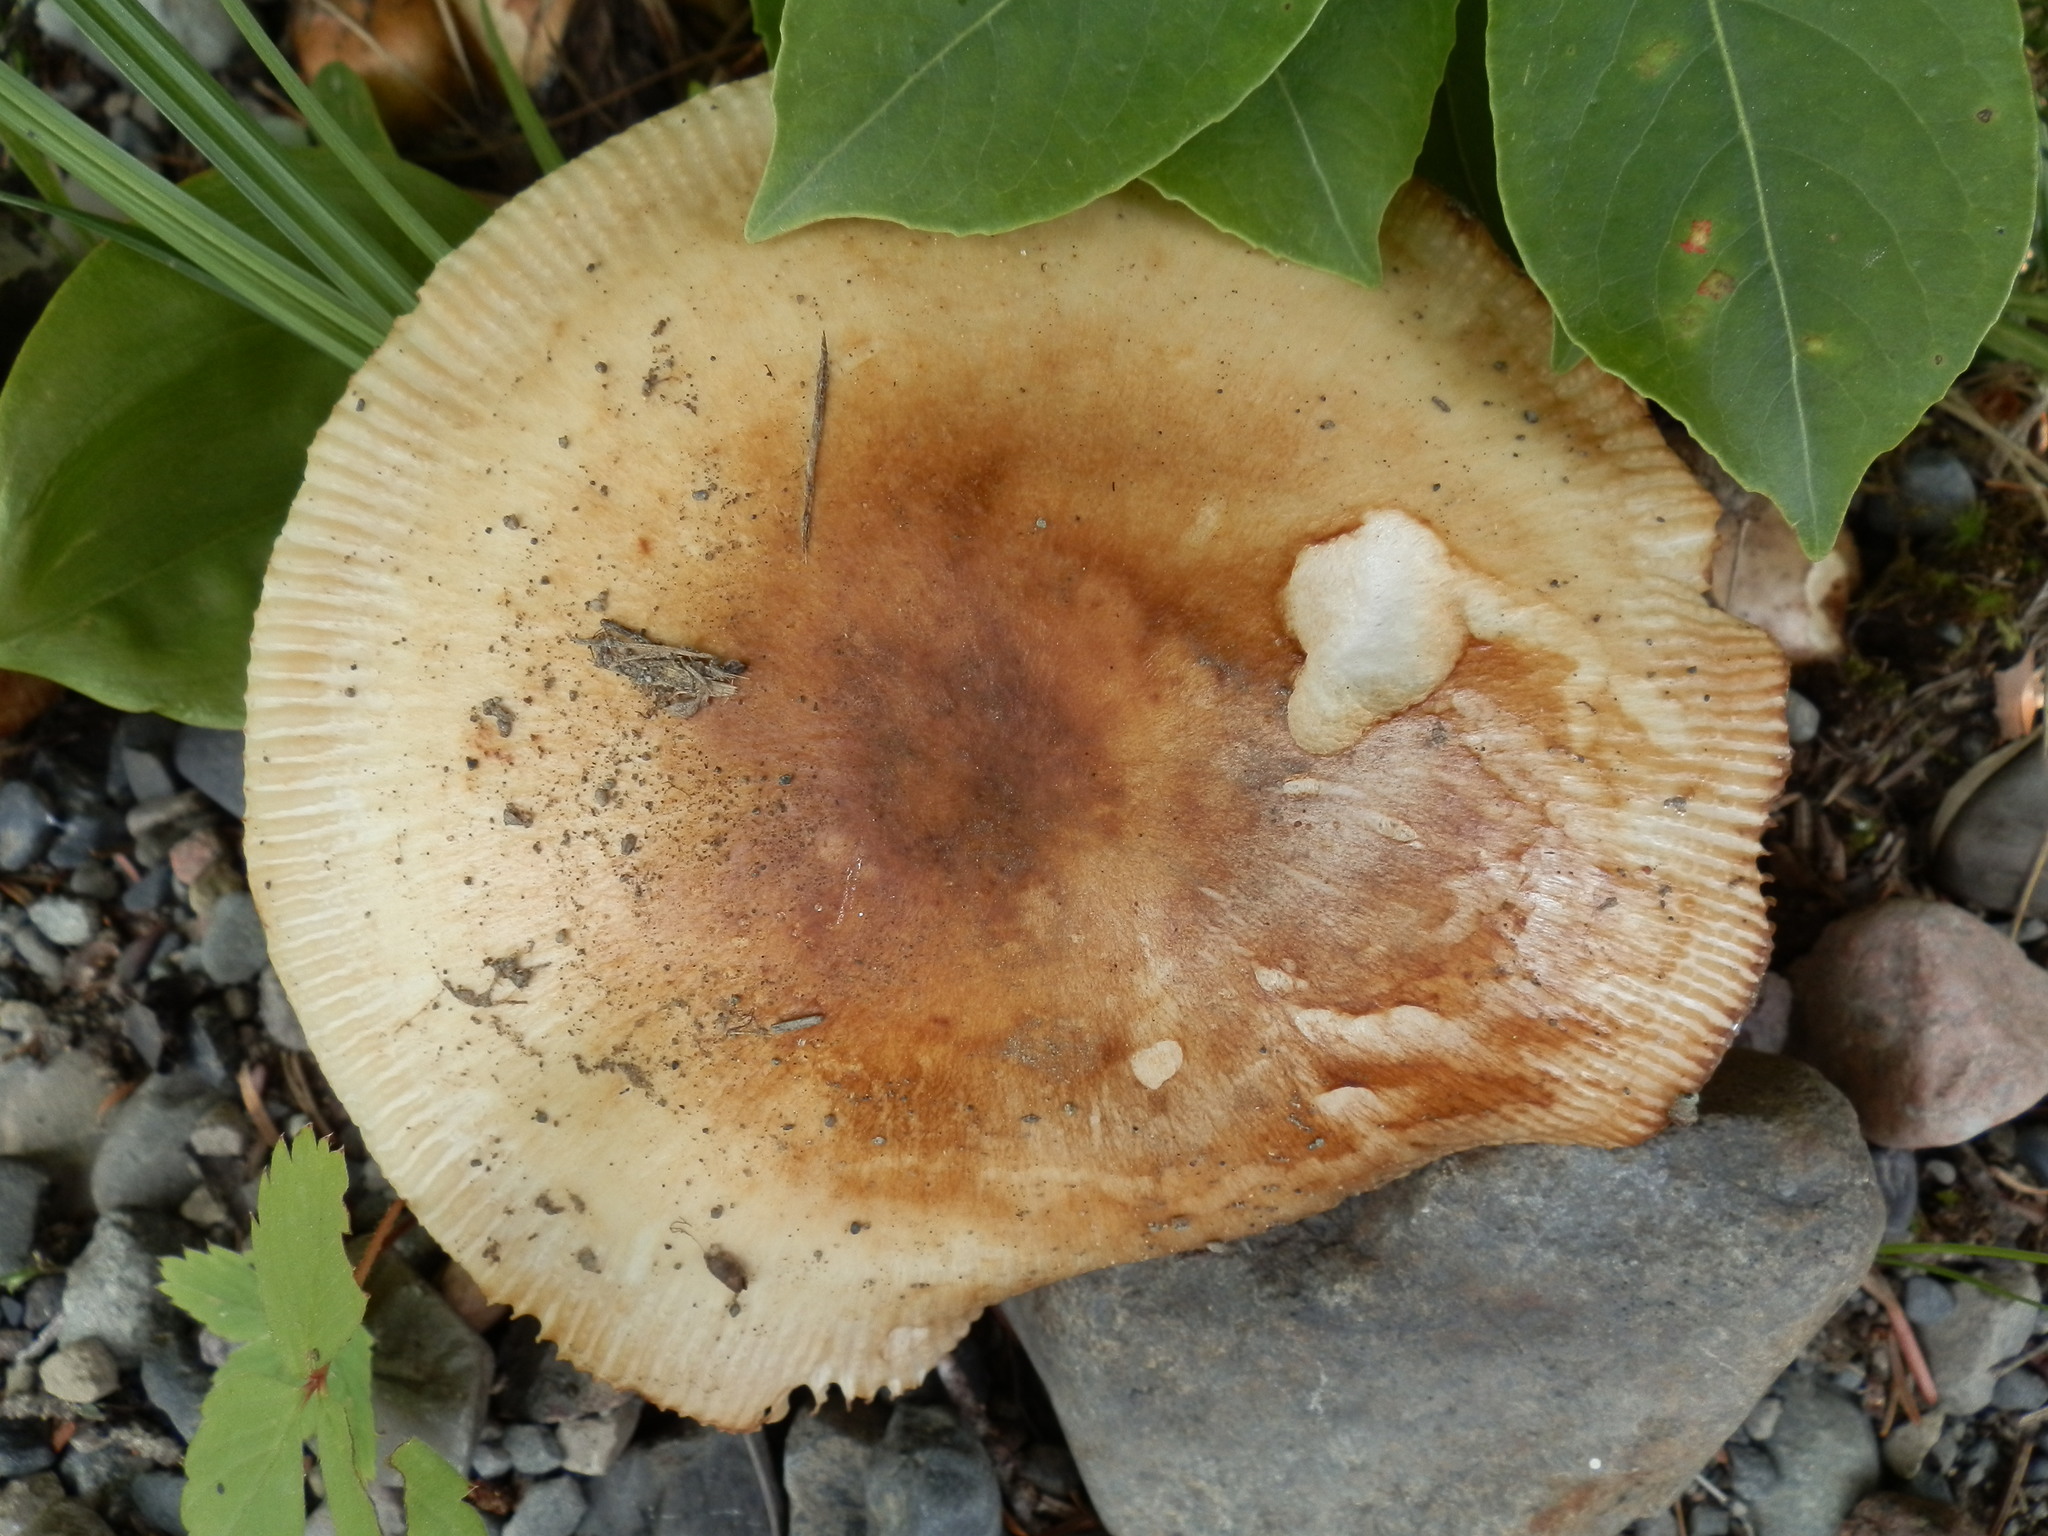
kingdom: Fungi
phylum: Basidiomycota
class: Agaricomycetes
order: Russulales
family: Russulaceae
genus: Russula
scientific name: Russula grata
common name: Bitter almond brittlegill
